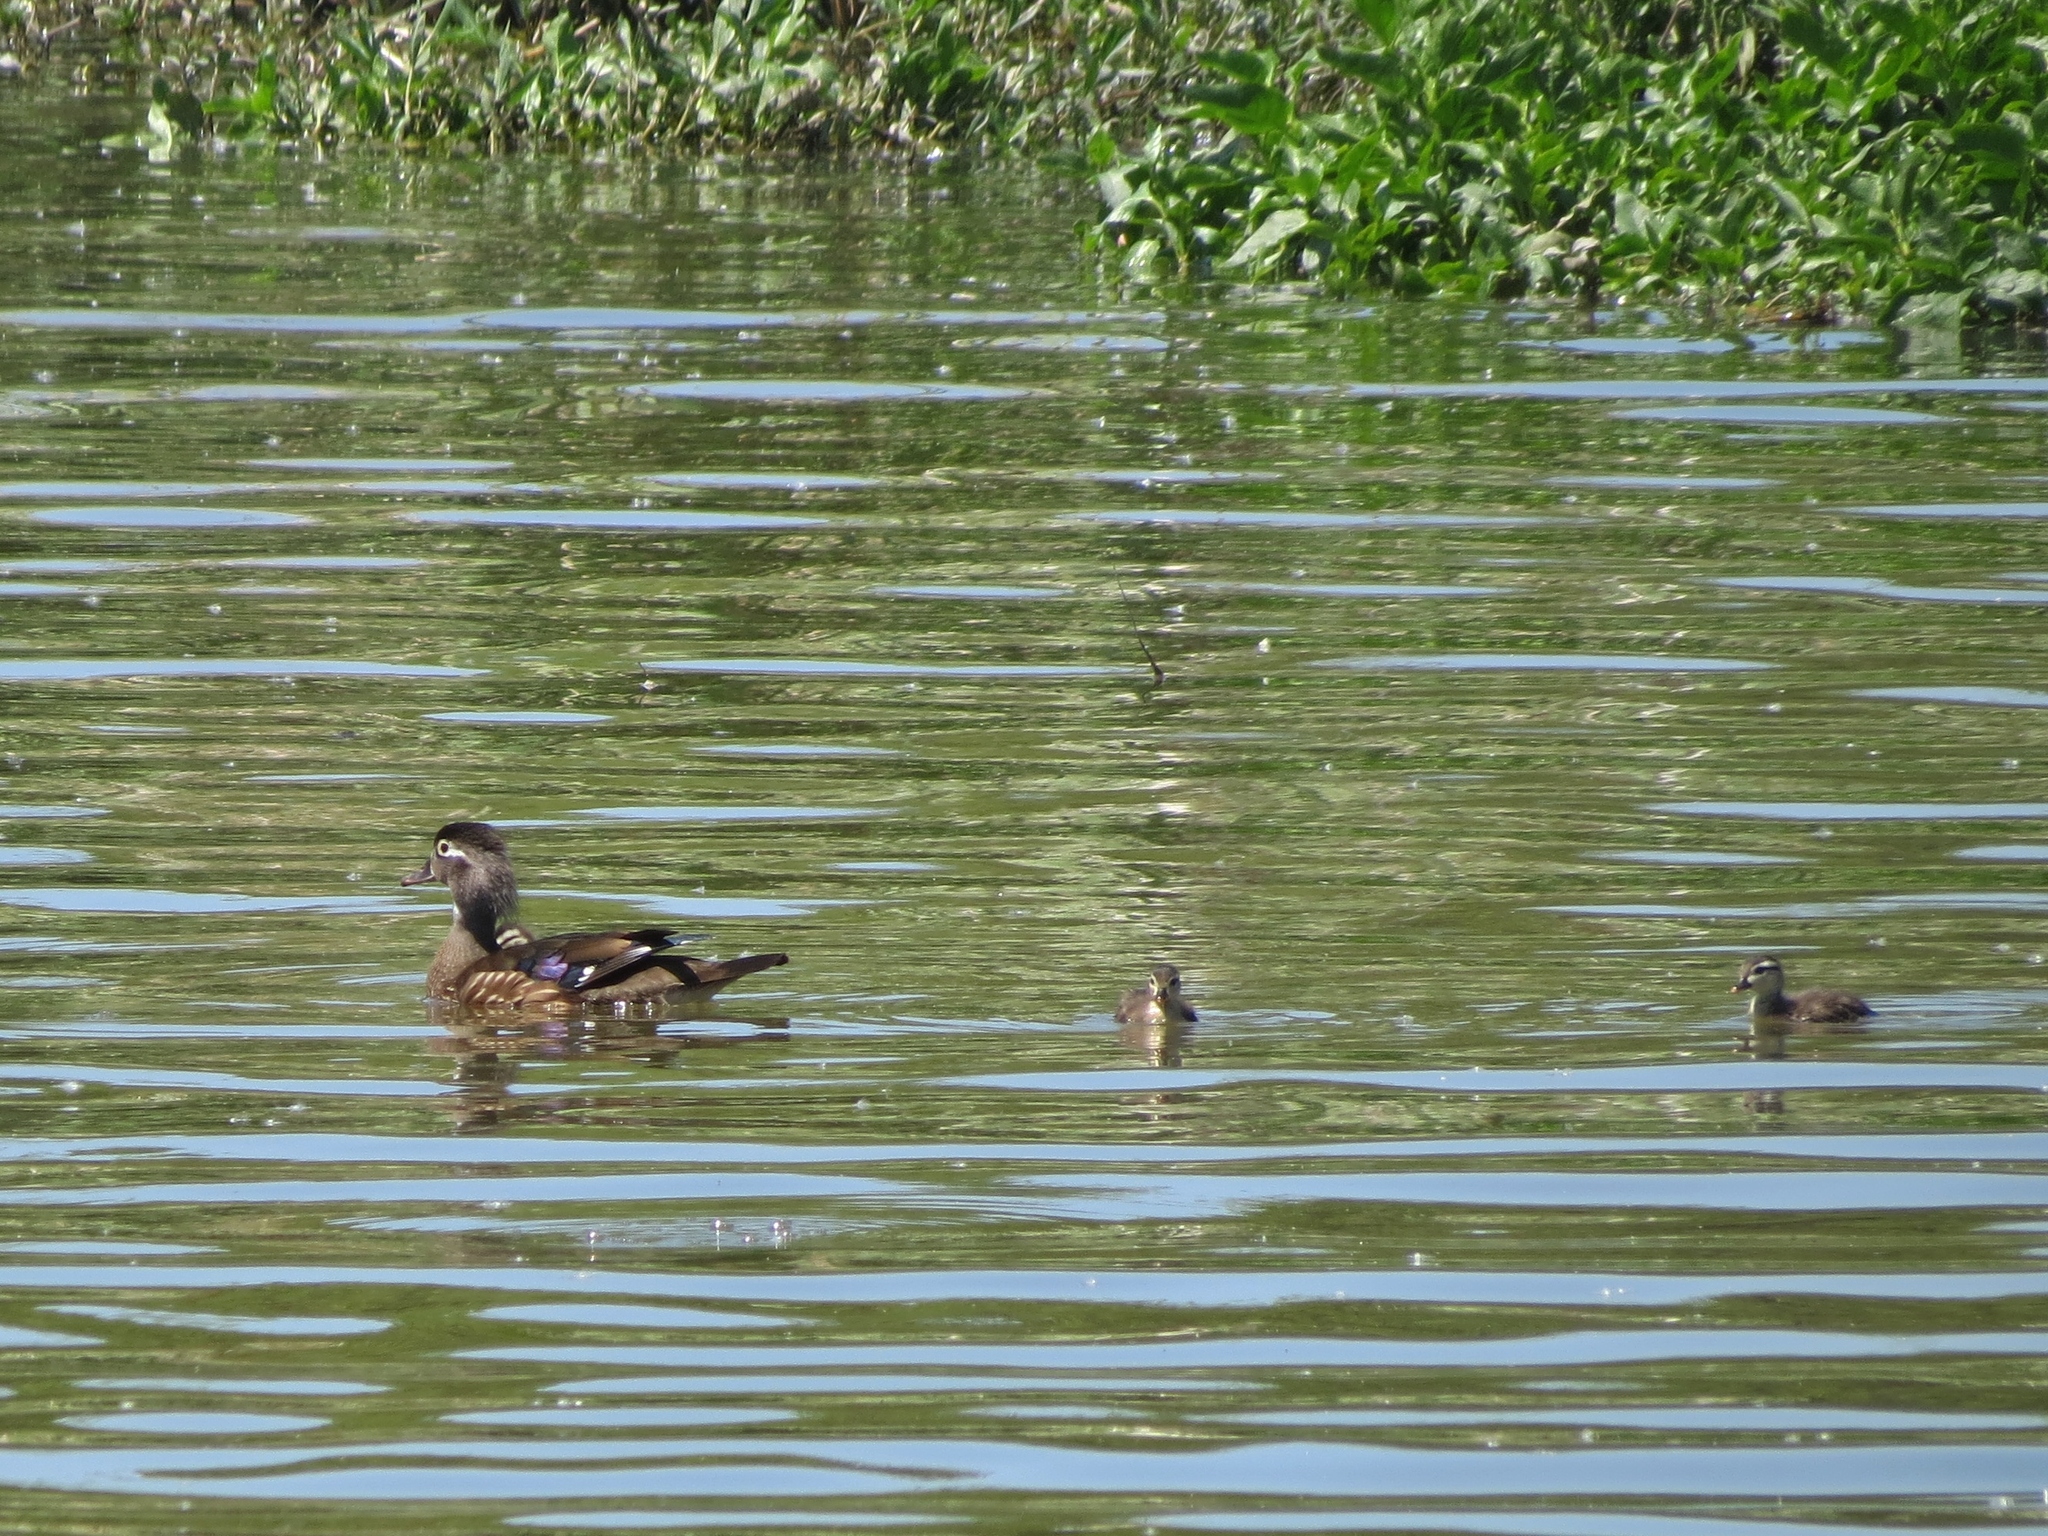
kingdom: Animalia
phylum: Chordata
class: Aves
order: Anseriformes
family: Anatidae
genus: Aix
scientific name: Aix sponsa
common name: Wood duck
